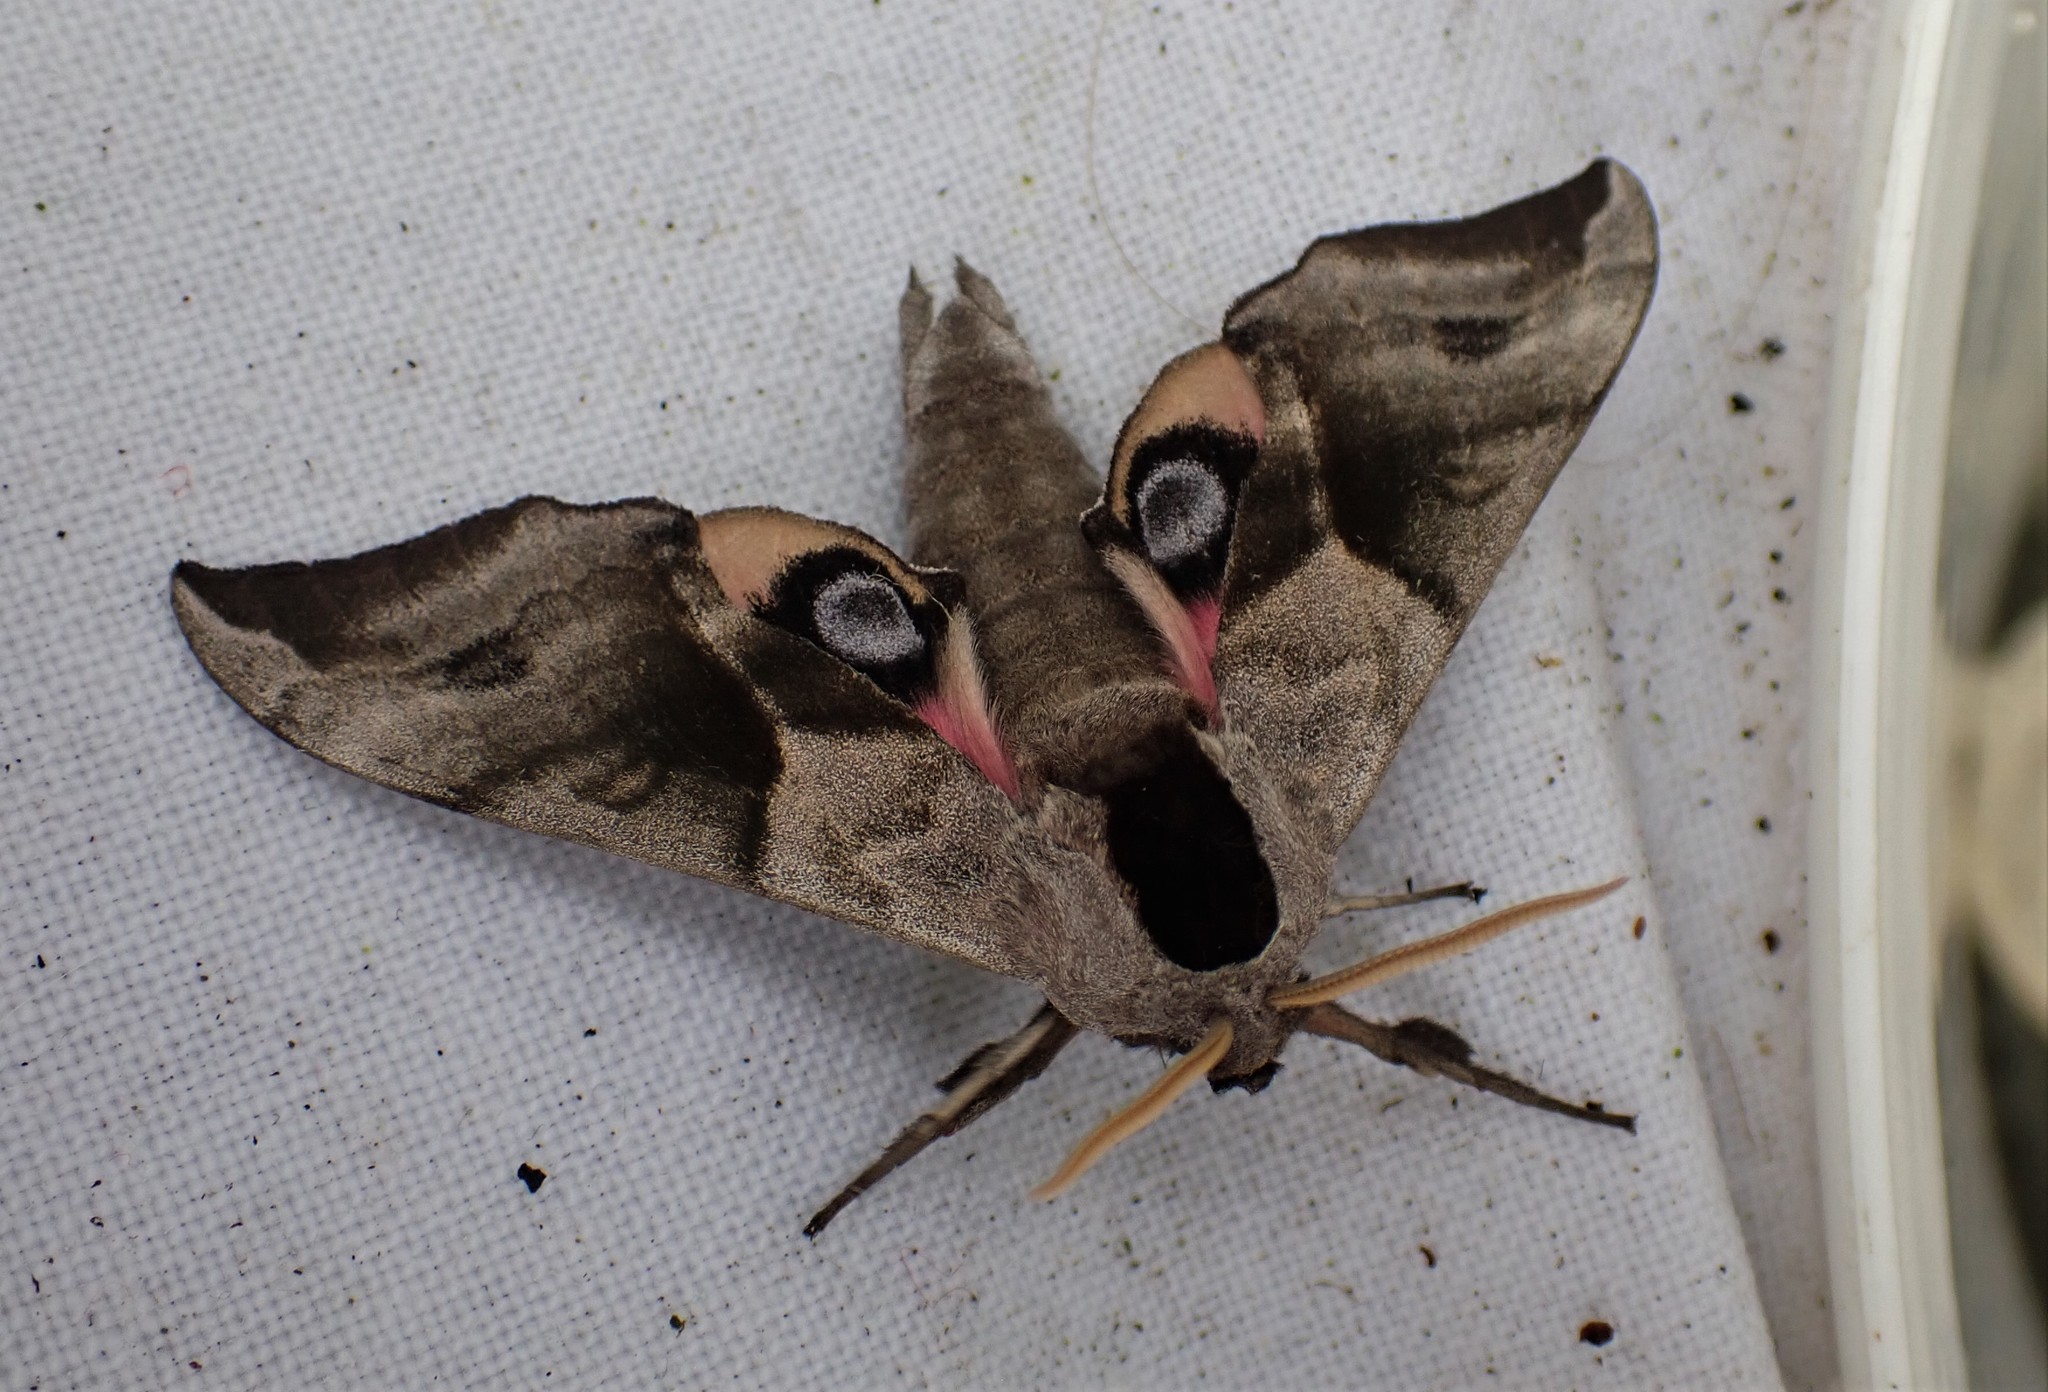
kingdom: Animalia
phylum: Arthropoda
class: Insecta
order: Lepidoptera
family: Sphingidae
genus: Smerinthus
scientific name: Smerinthus ocellata
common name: Eyed hawk-moth
